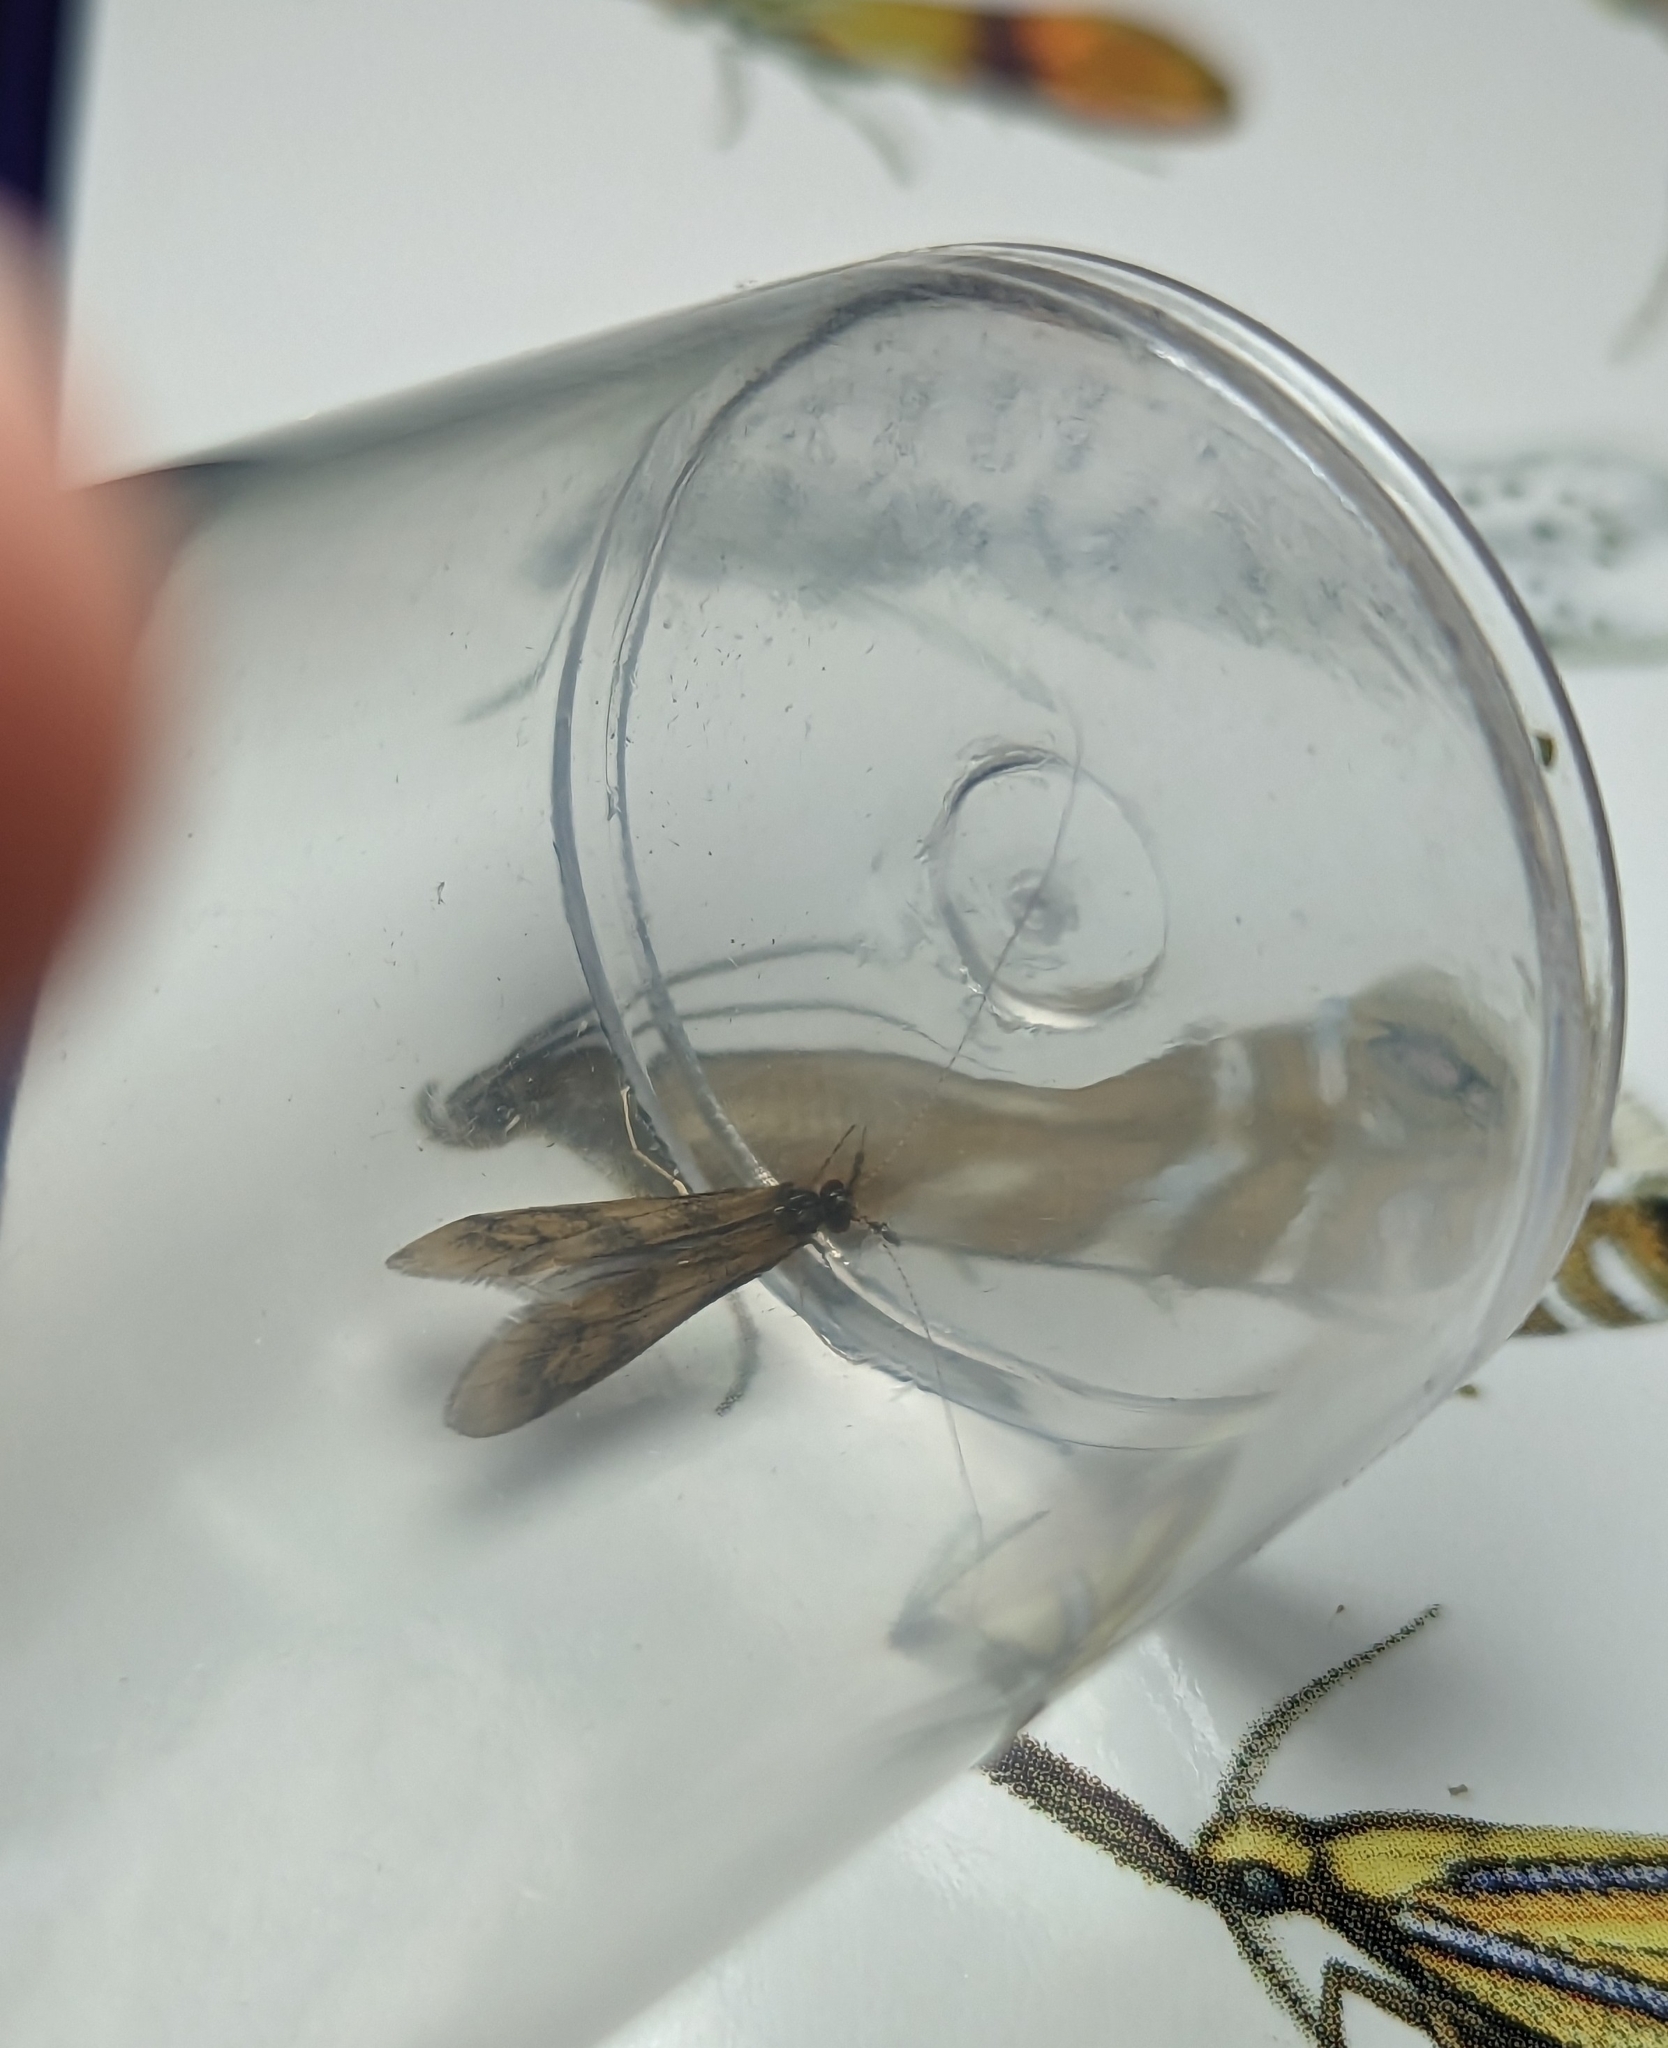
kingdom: Animalia
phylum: Arthropoda
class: Insecta
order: Trichoptera
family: Leptoceridae
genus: Mystacides
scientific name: Mystacides longicornis
